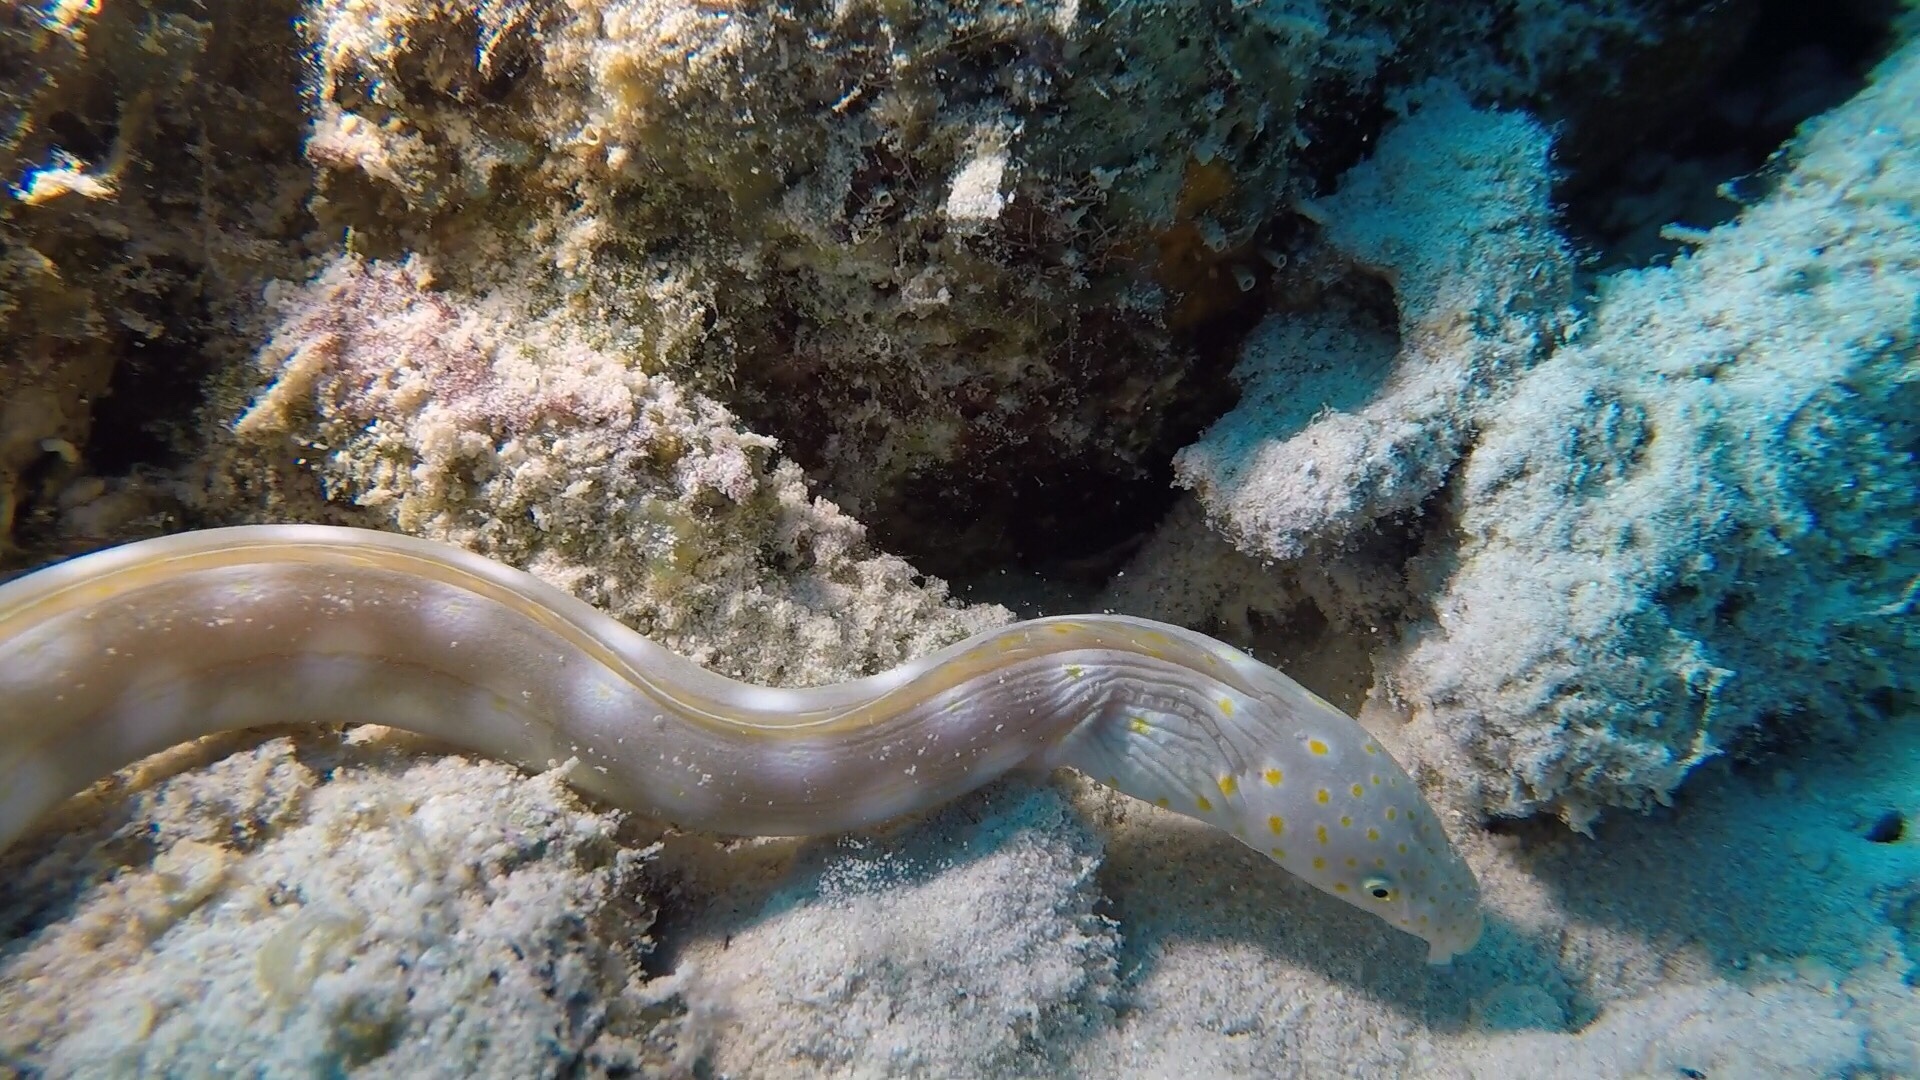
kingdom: Animalia
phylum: Chordata
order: Anguilliformes
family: Ophichthidae
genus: Myrichthys
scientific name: Myrichthys breviceps
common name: Sharptail eel
